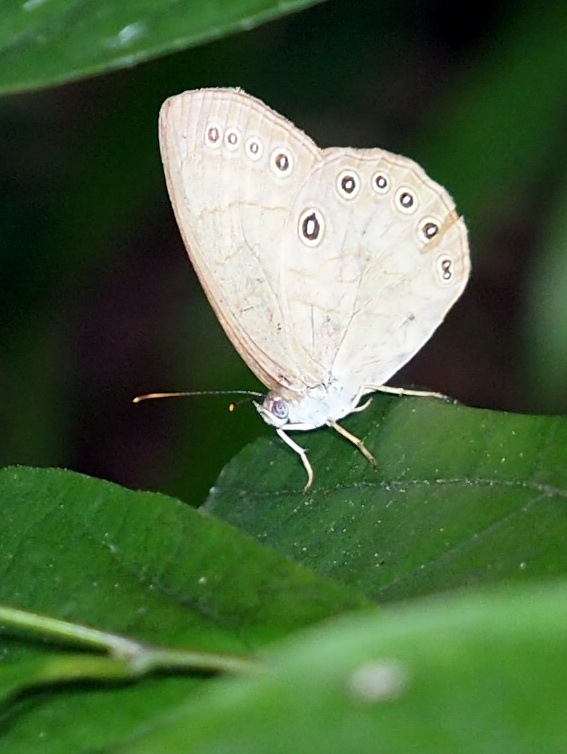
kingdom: Animalia
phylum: Arthropoda
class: Insecta
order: Lepidoptera
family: Nymphalidae
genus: Lethe
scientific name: Lethe eurydice
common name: Eyed brown
